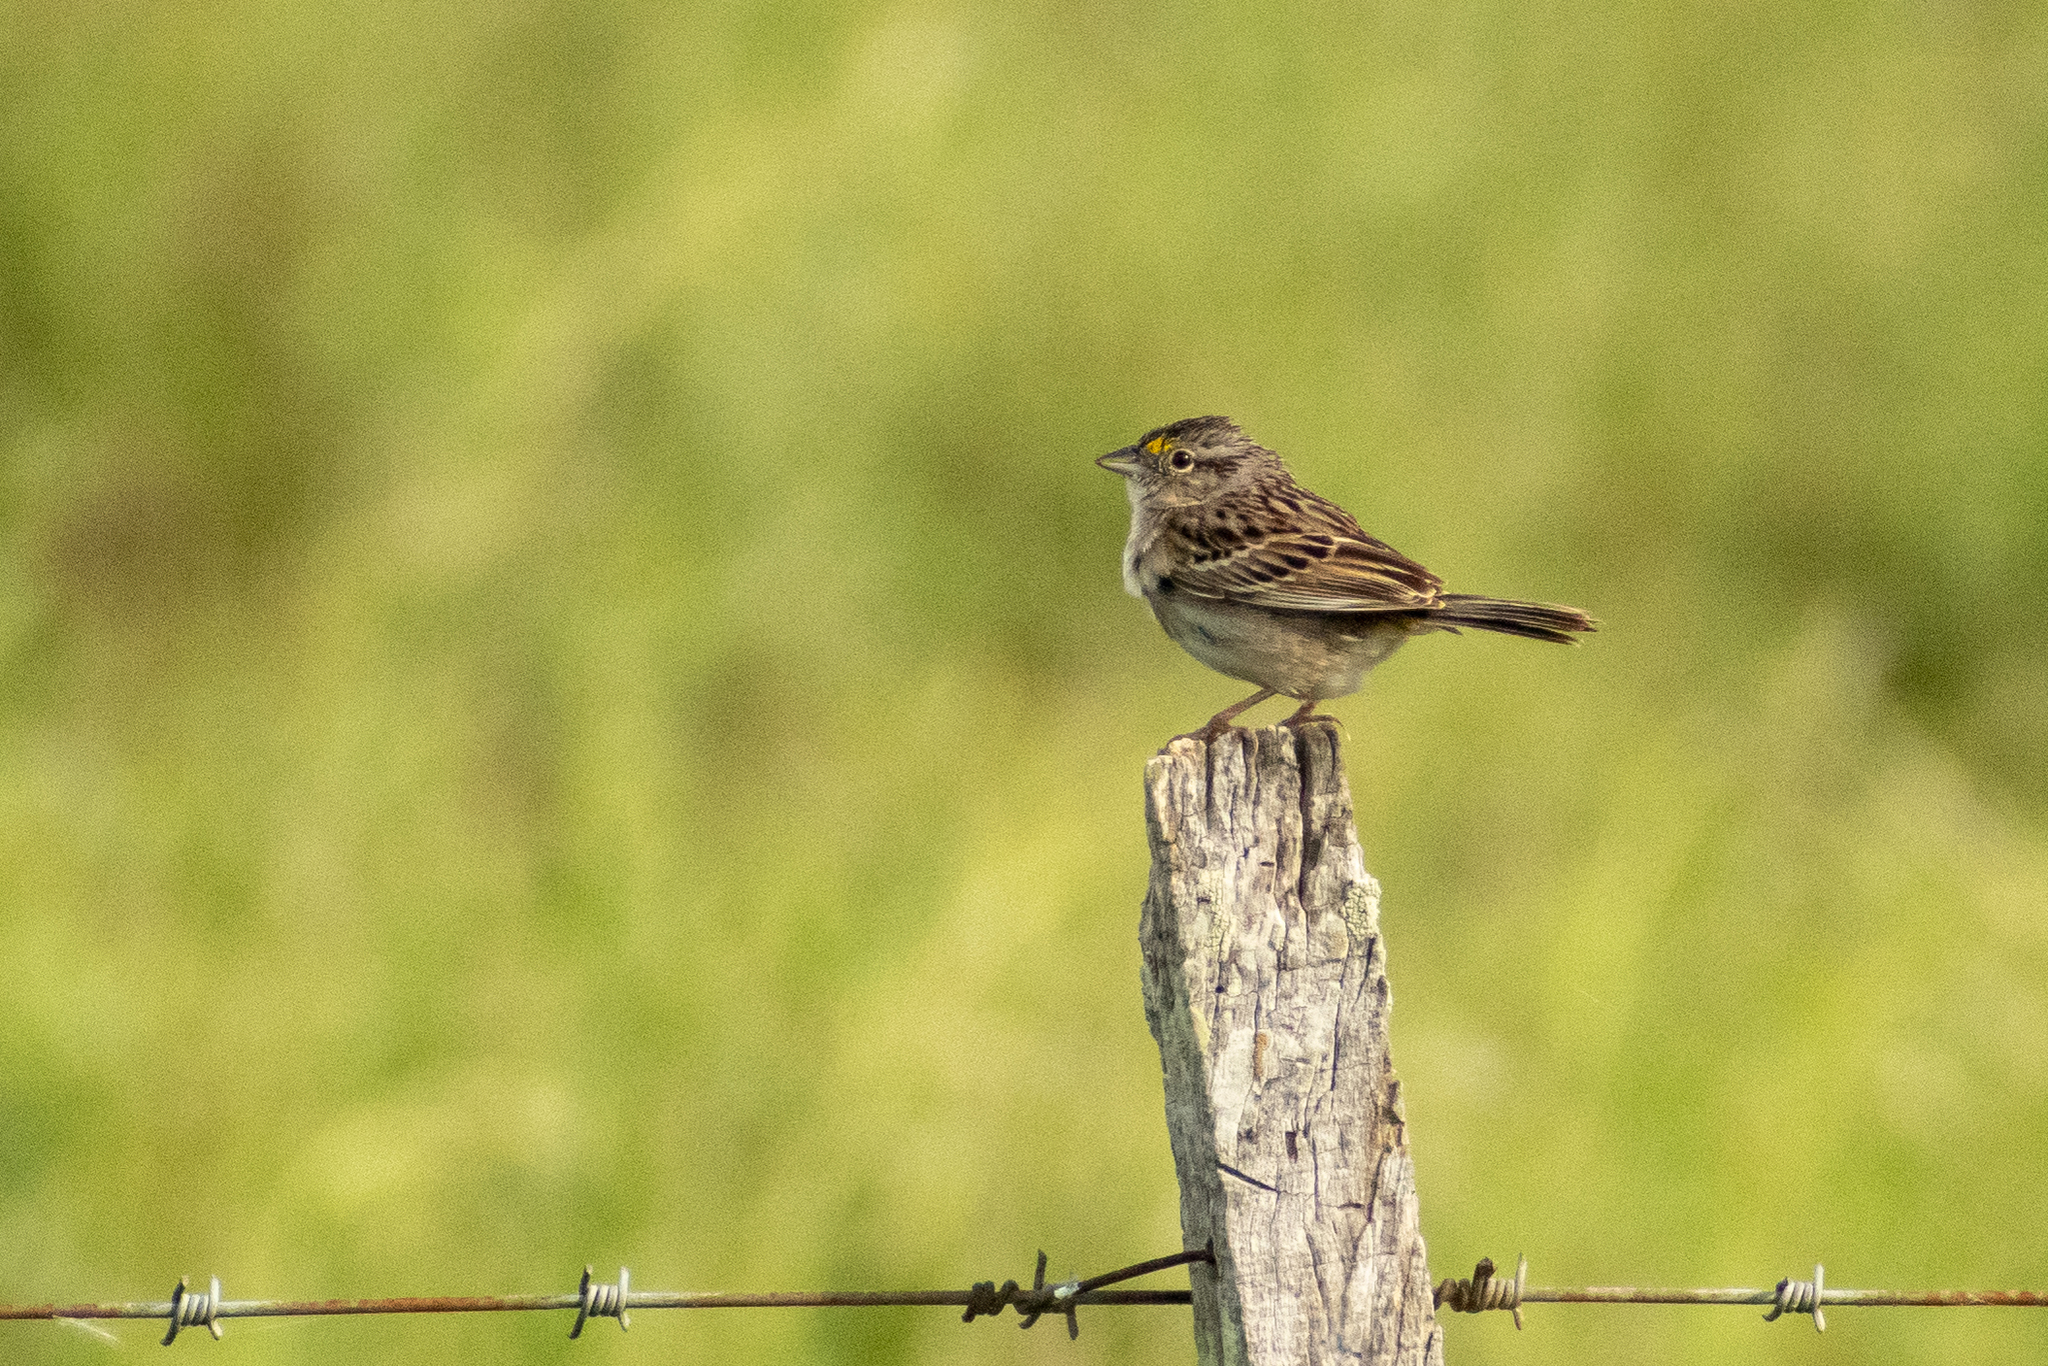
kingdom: Animalia
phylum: Chordata
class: Aves
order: Passeriformes
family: Passerellidae
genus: Ammodramus
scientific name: Ammodramus humeralis
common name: Grassland sparrow
